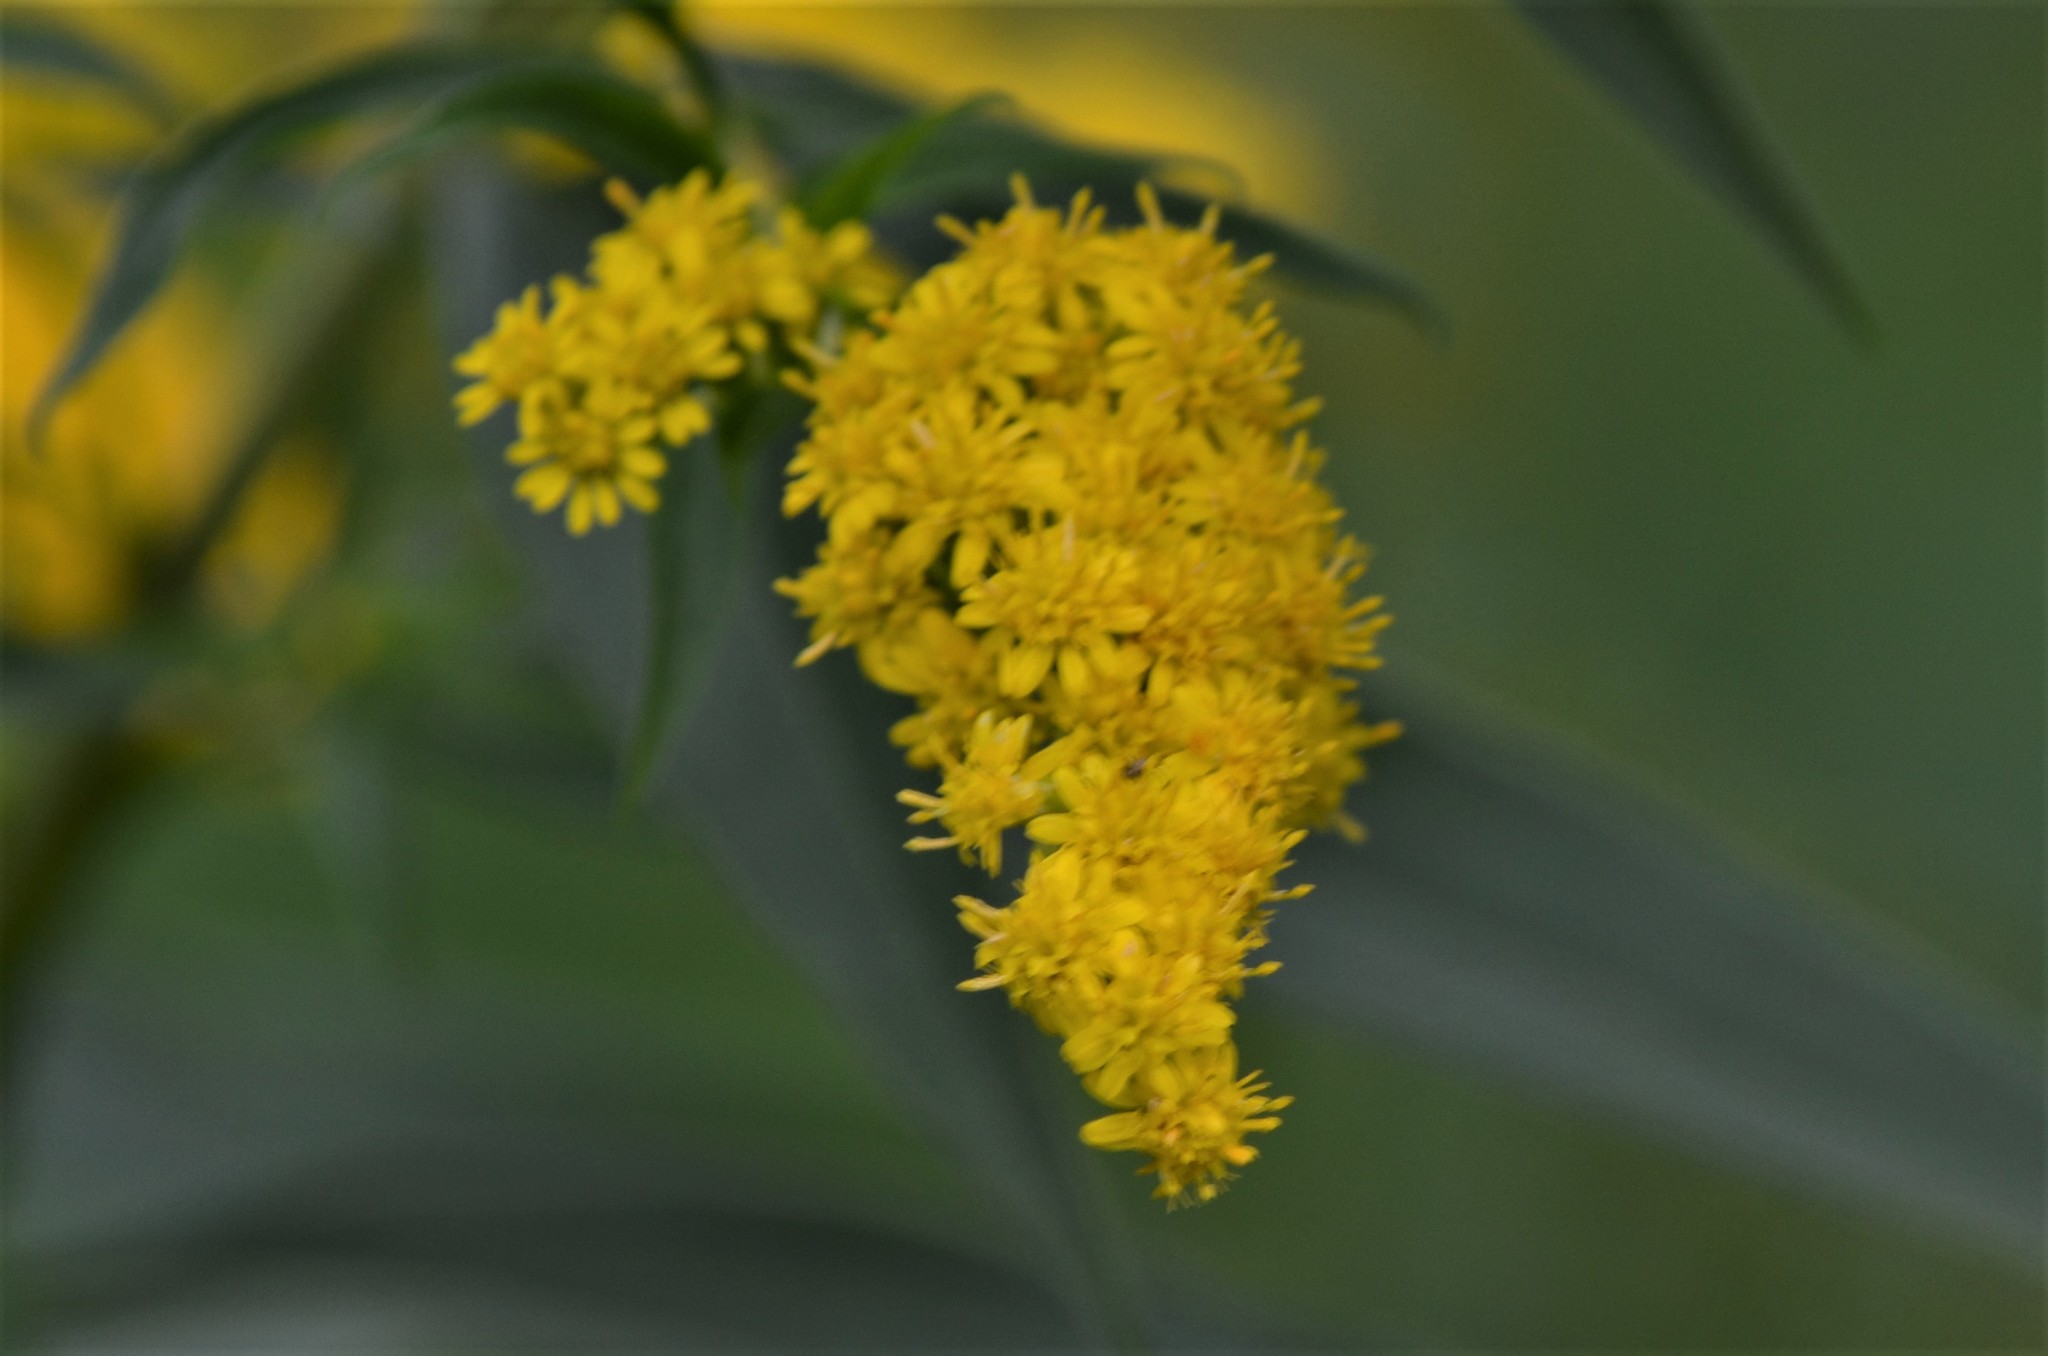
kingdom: Plantae
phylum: Tracheophyta
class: Magnoliopsida
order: Asterales
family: Asteraceae
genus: Solidago
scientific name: Solidago gigantea
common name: Giant goldenrod
